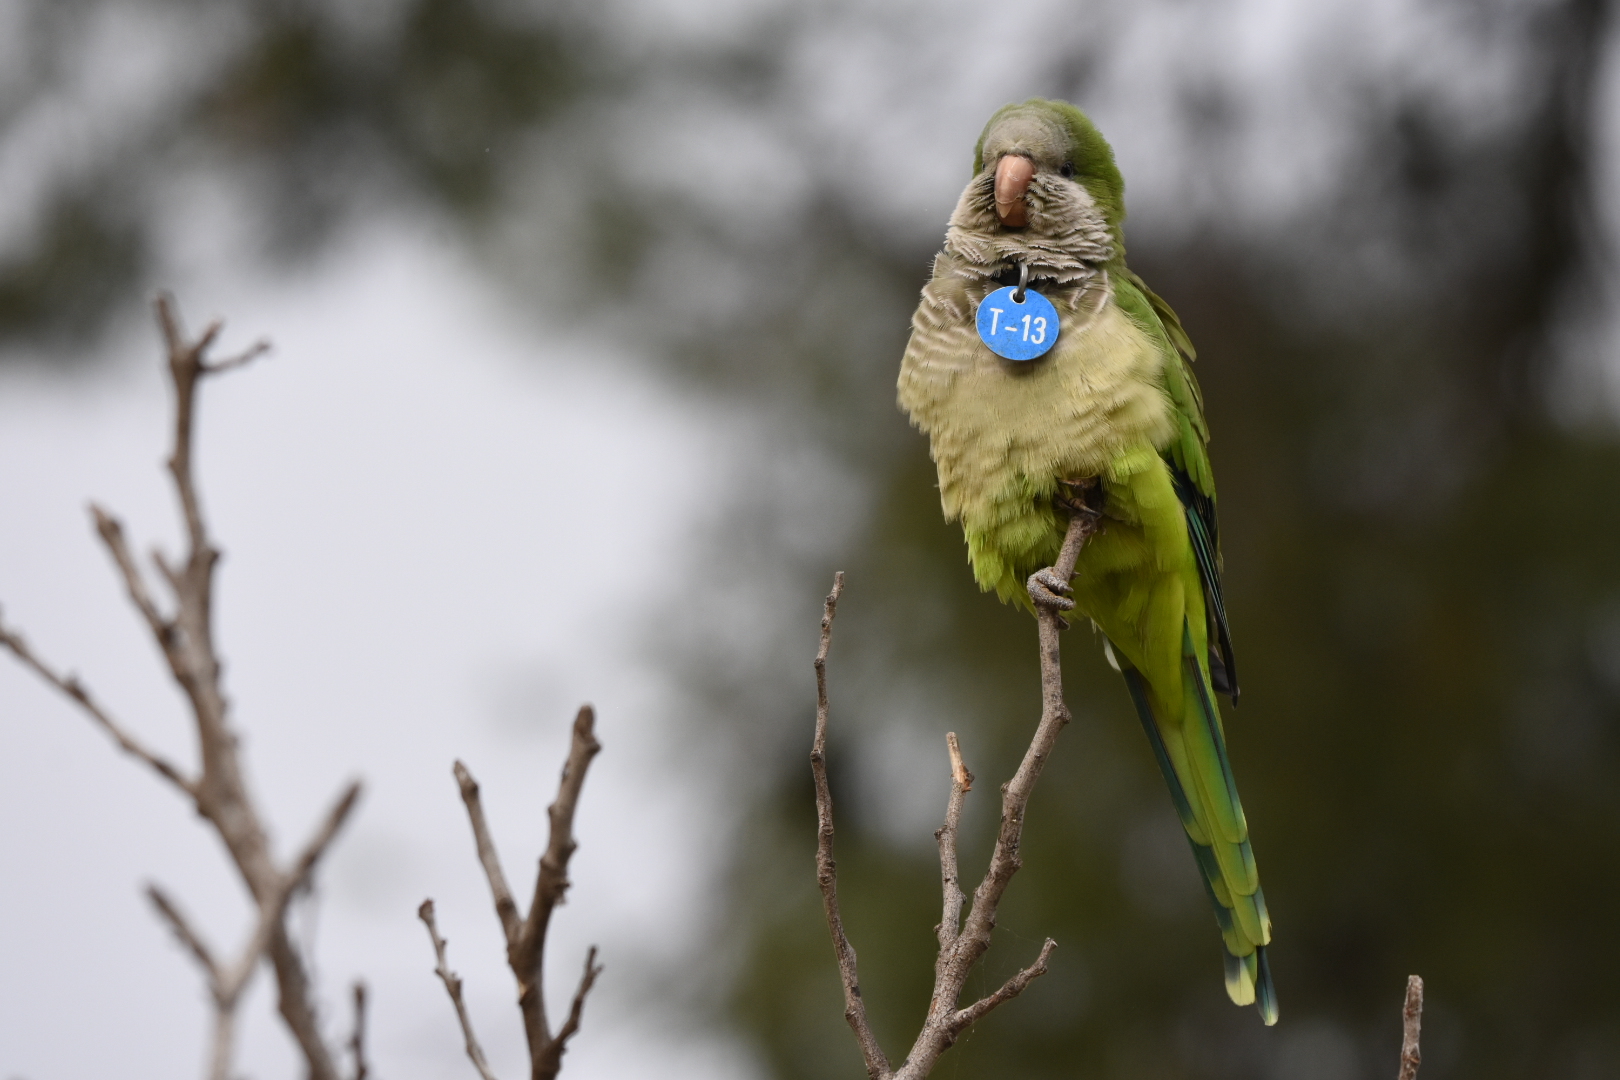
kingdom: Animalia
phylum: Chordata
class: Aves
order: Psittaciformes
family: Psittacidae
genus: Myiopsitta
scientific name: Myiopsitta monachus
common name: Monk parakeet
